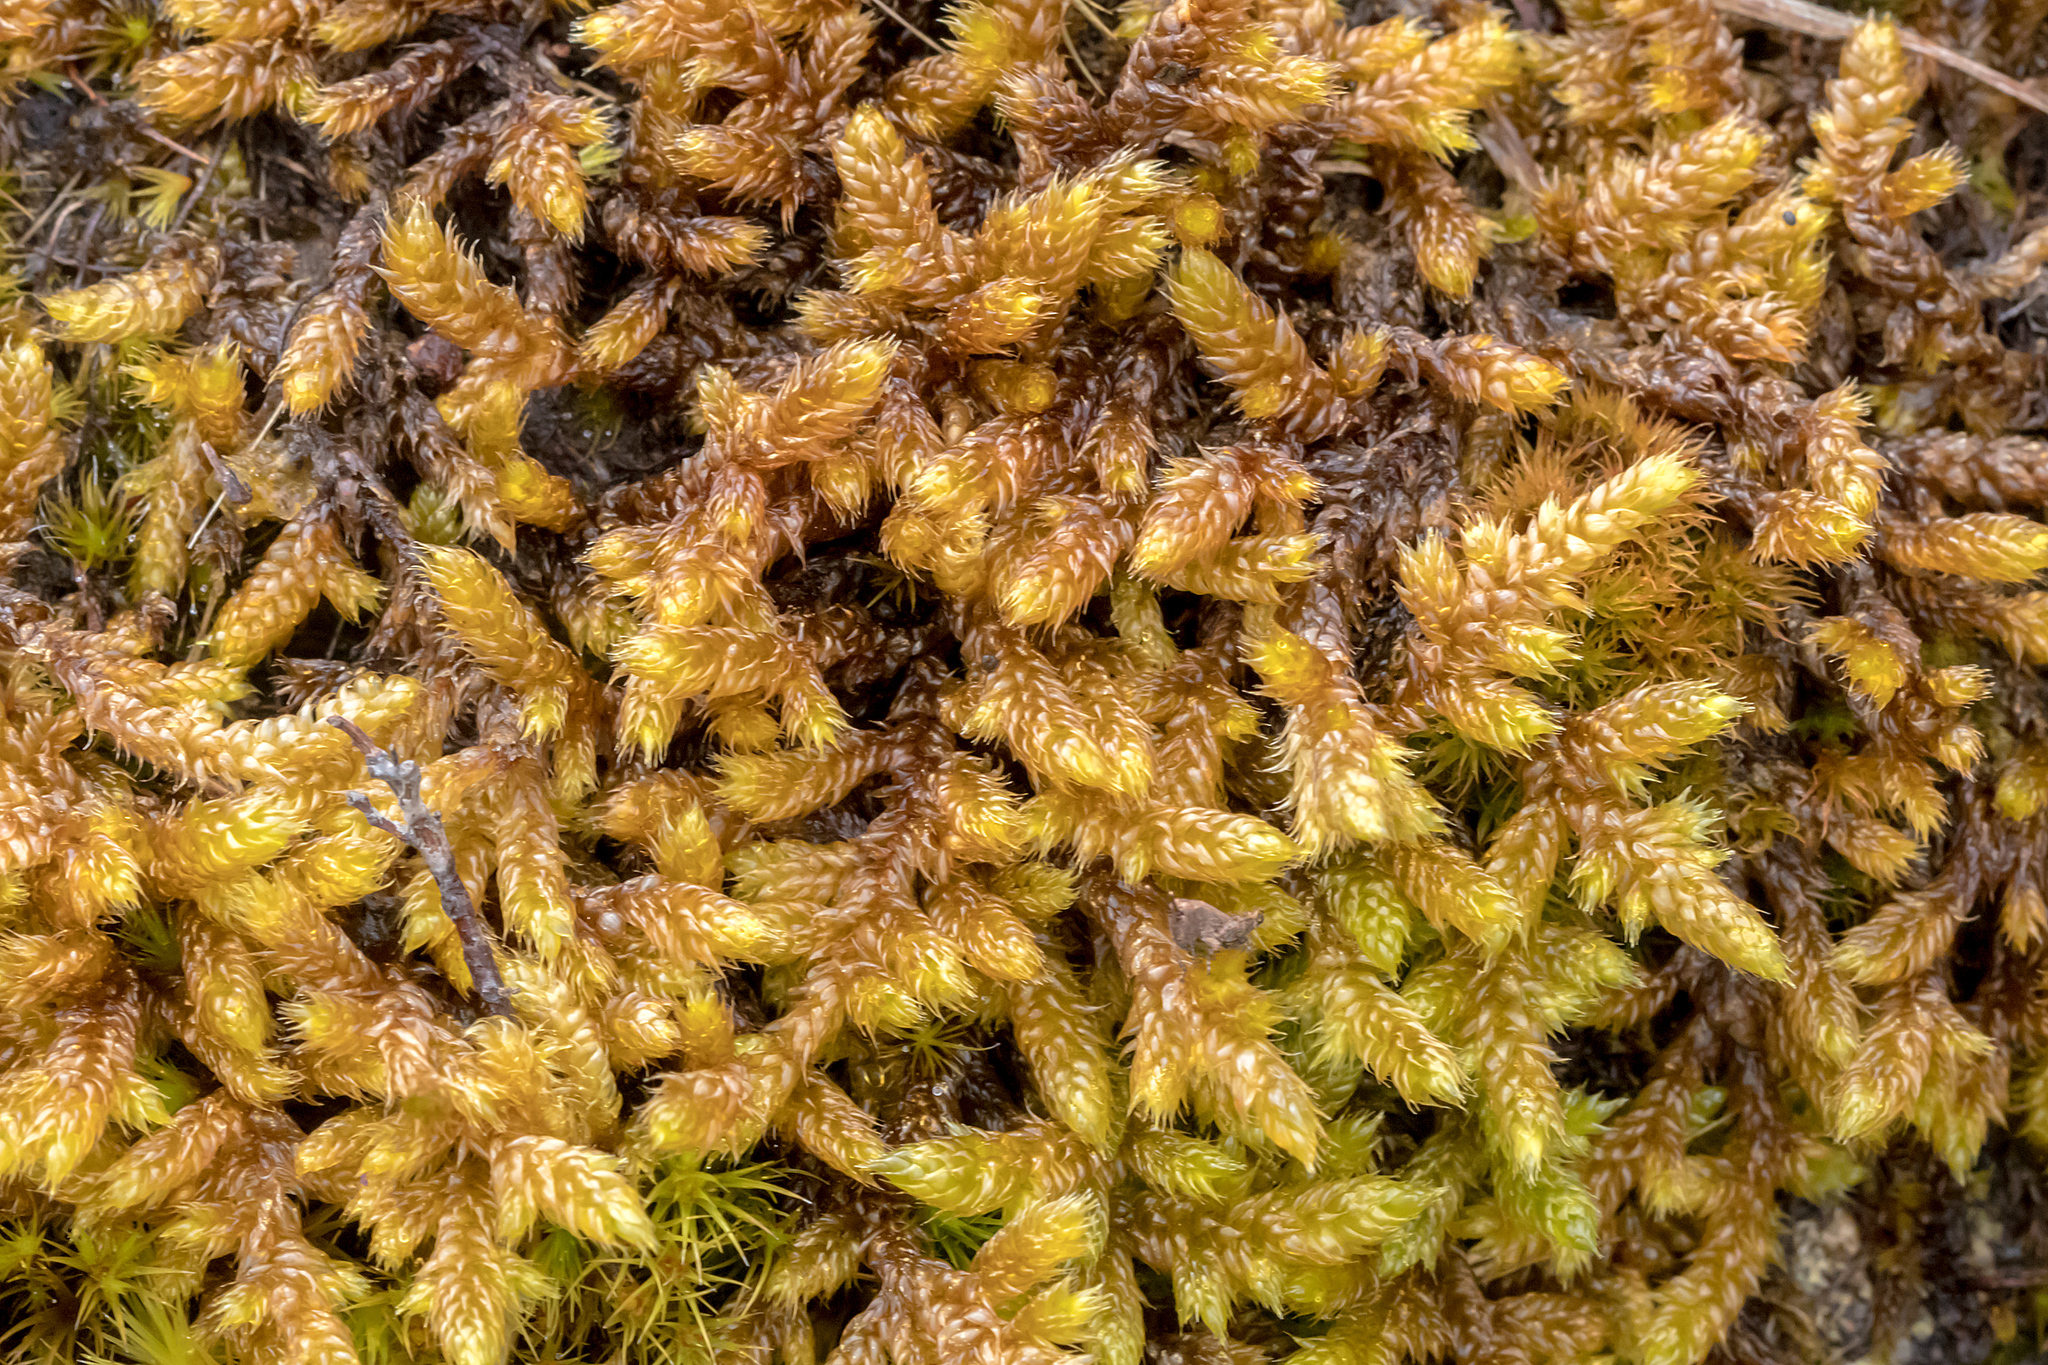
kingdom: Plantae
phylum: Bryophyta
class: Bryopsida
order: Hypnales
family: Hypnaceae
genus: Hypnum
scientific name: Hypnum cupressiforme
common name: Cypress-leaved plait-moss
